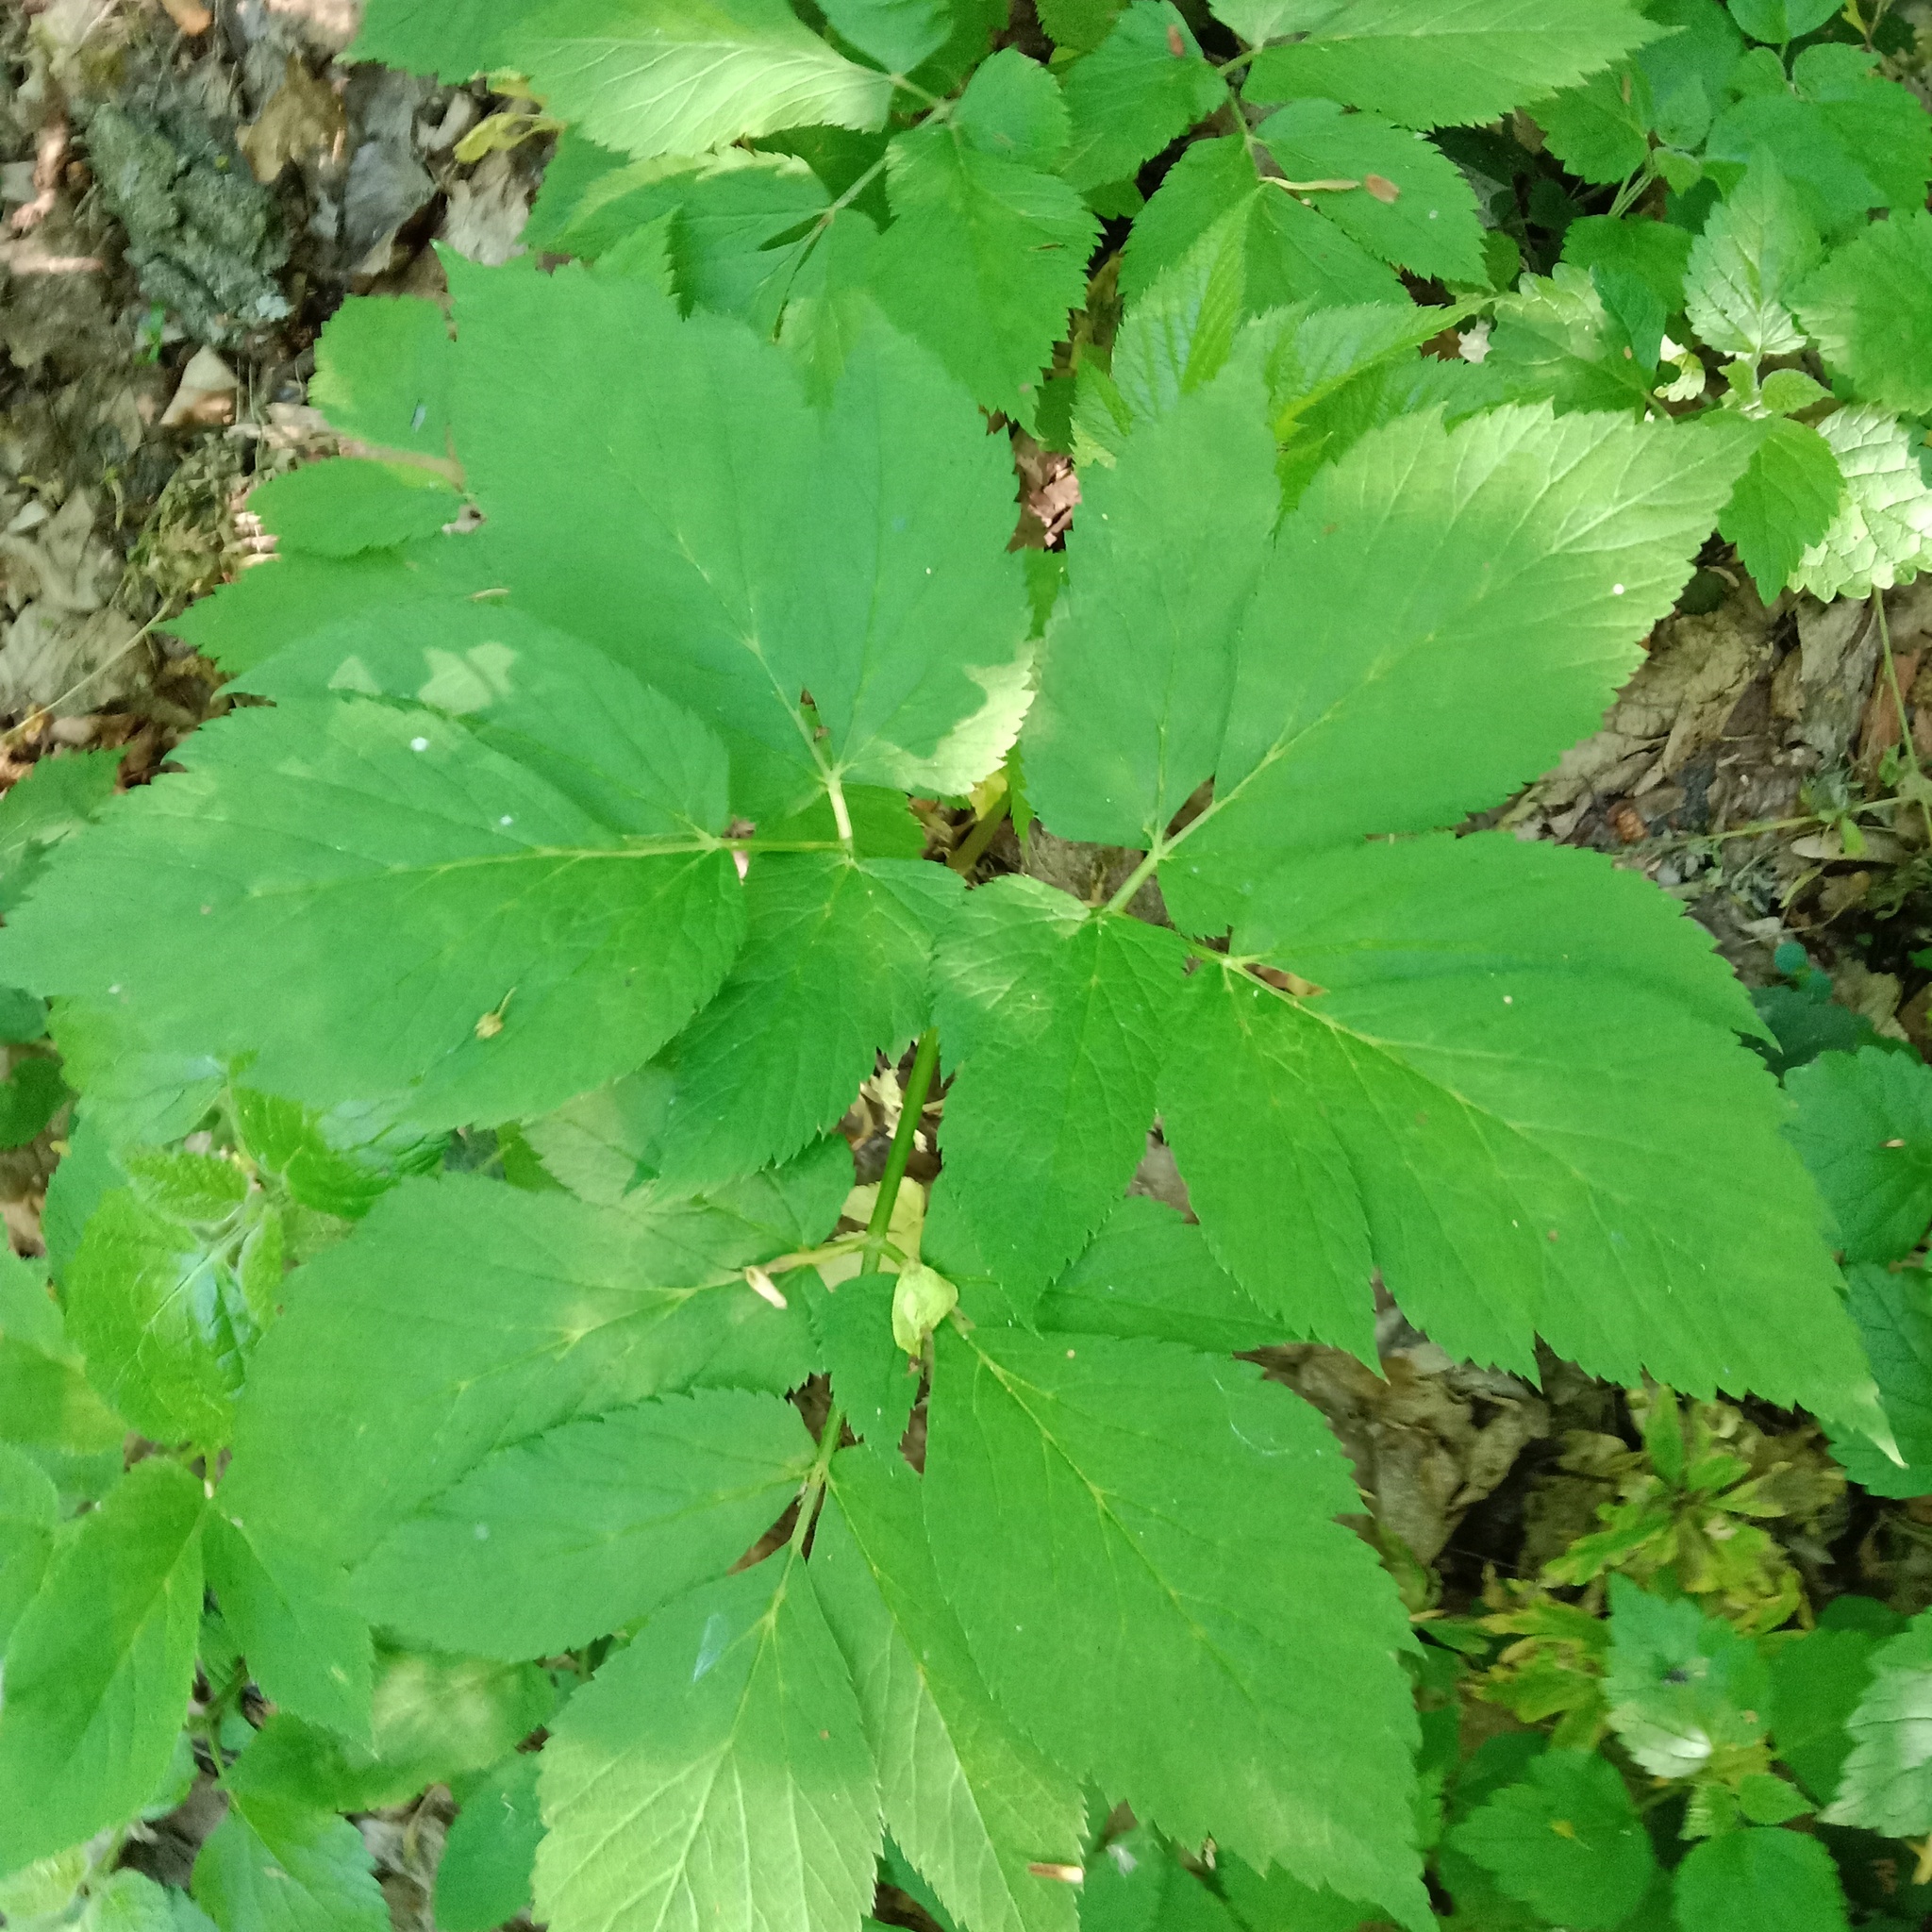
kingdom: Plantae
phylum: Tracheophyta
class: Magnoliopsida
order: Apiales
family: Apiaceae
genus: Aegopodium
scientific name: Aegopodium podagraria
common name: Ground-elder
